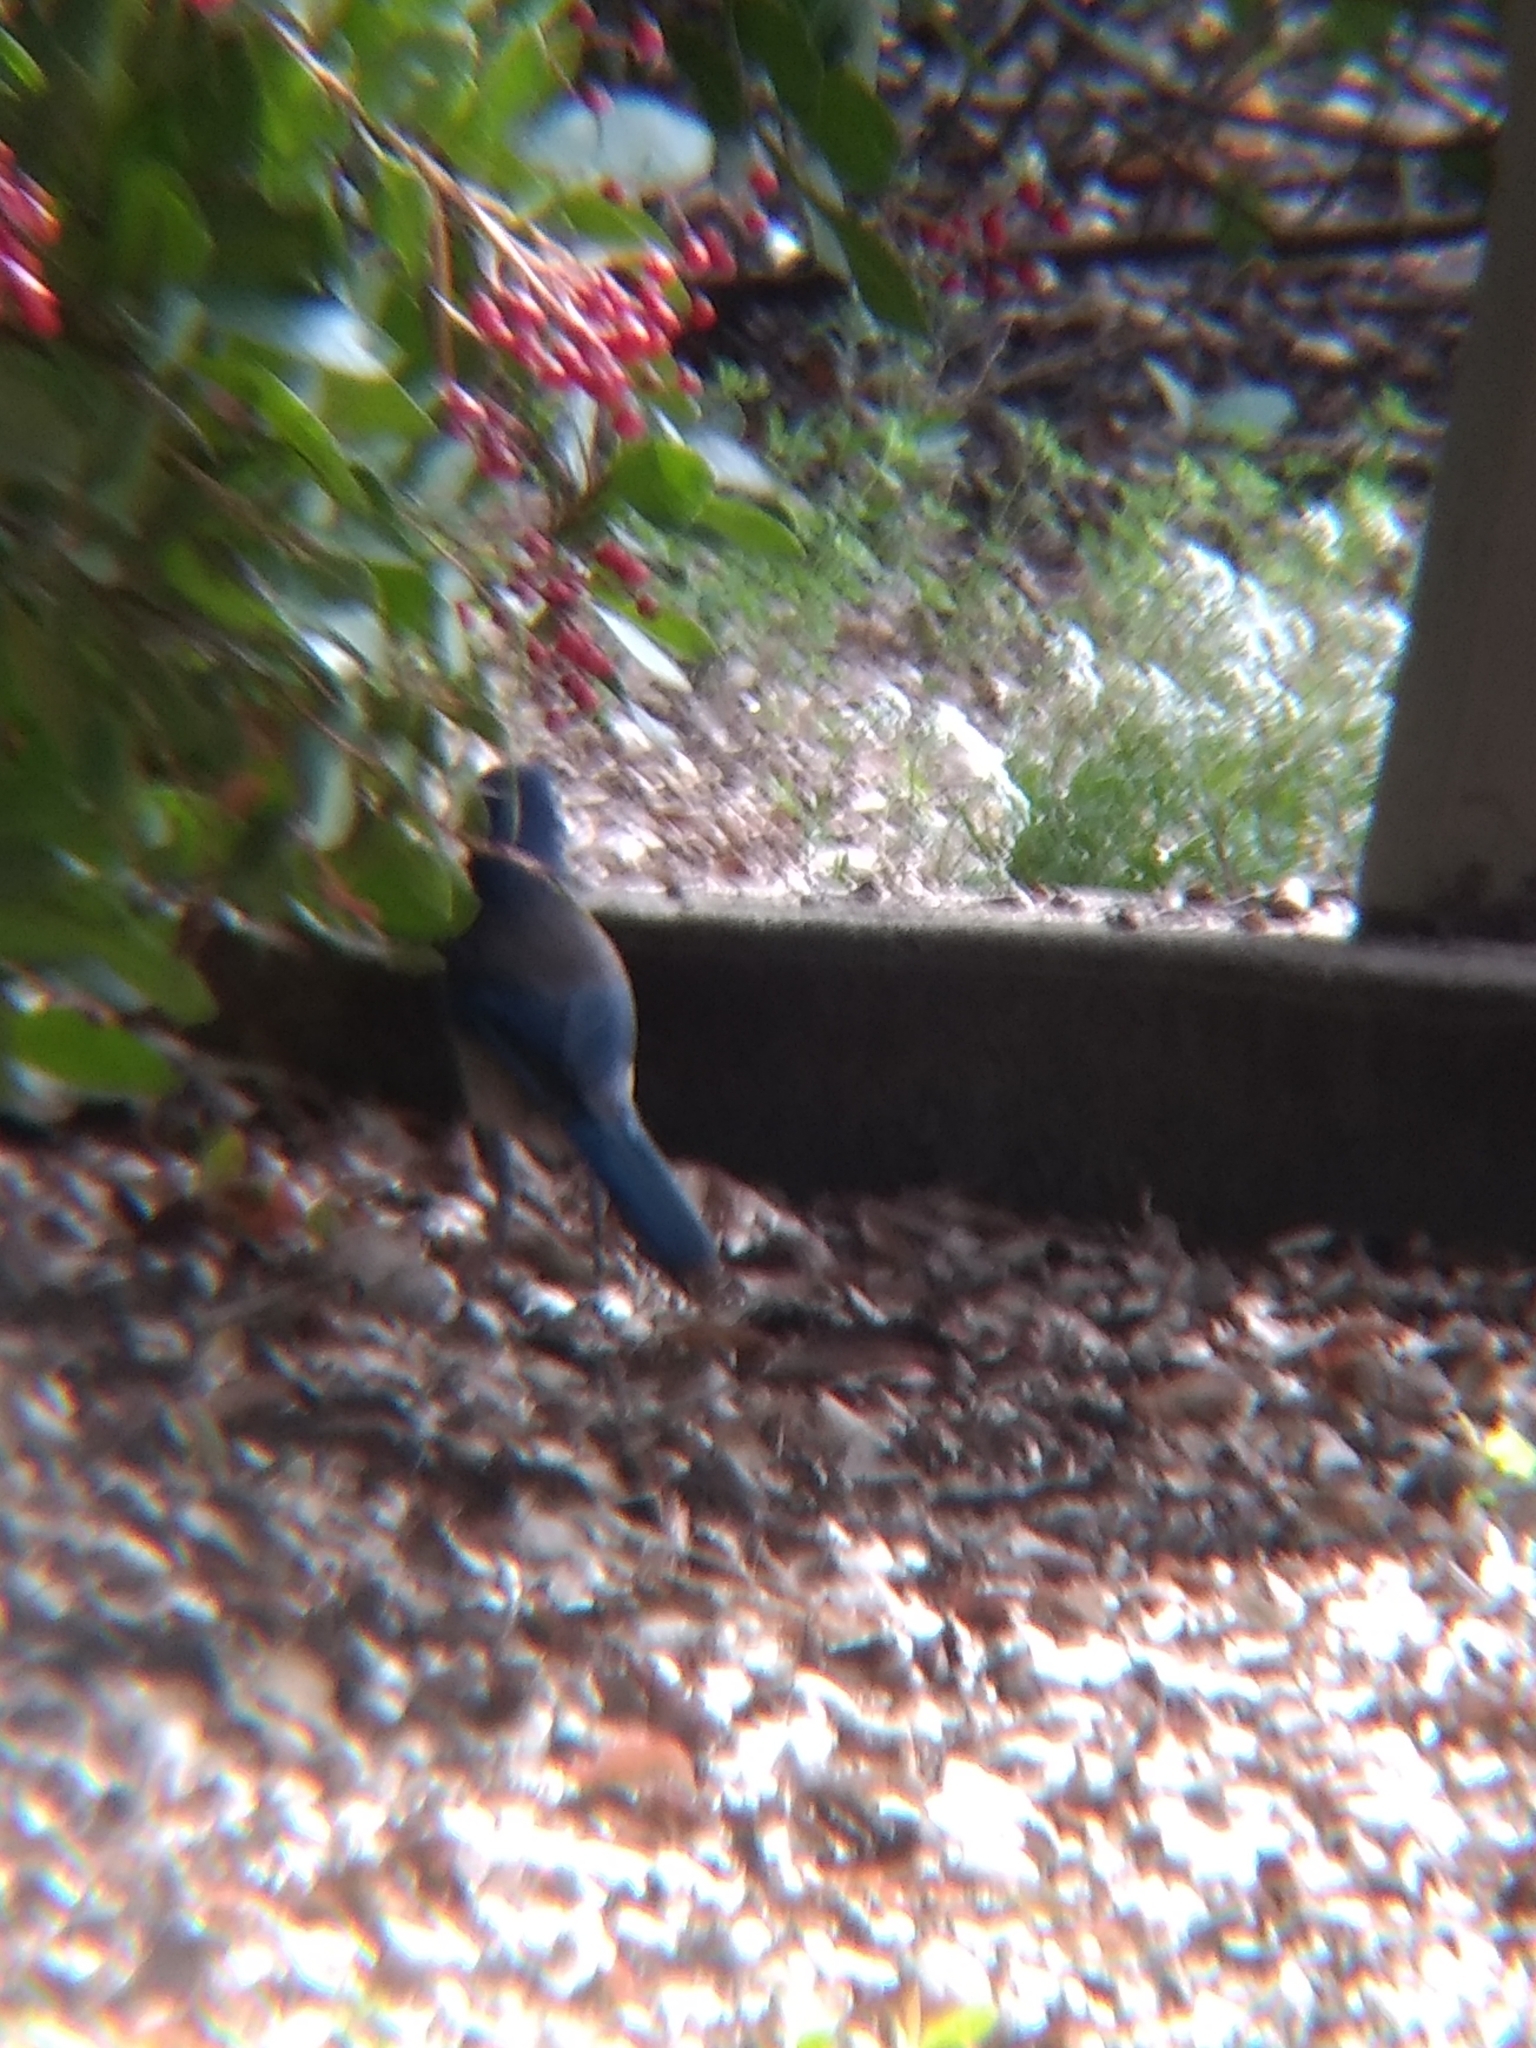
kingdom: Animalia
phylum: Chordata
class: Aves
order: Passeriformes
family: Corvidae
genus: Aphelocoma
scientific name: Aphelocoma californica
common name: California scrub-jay
